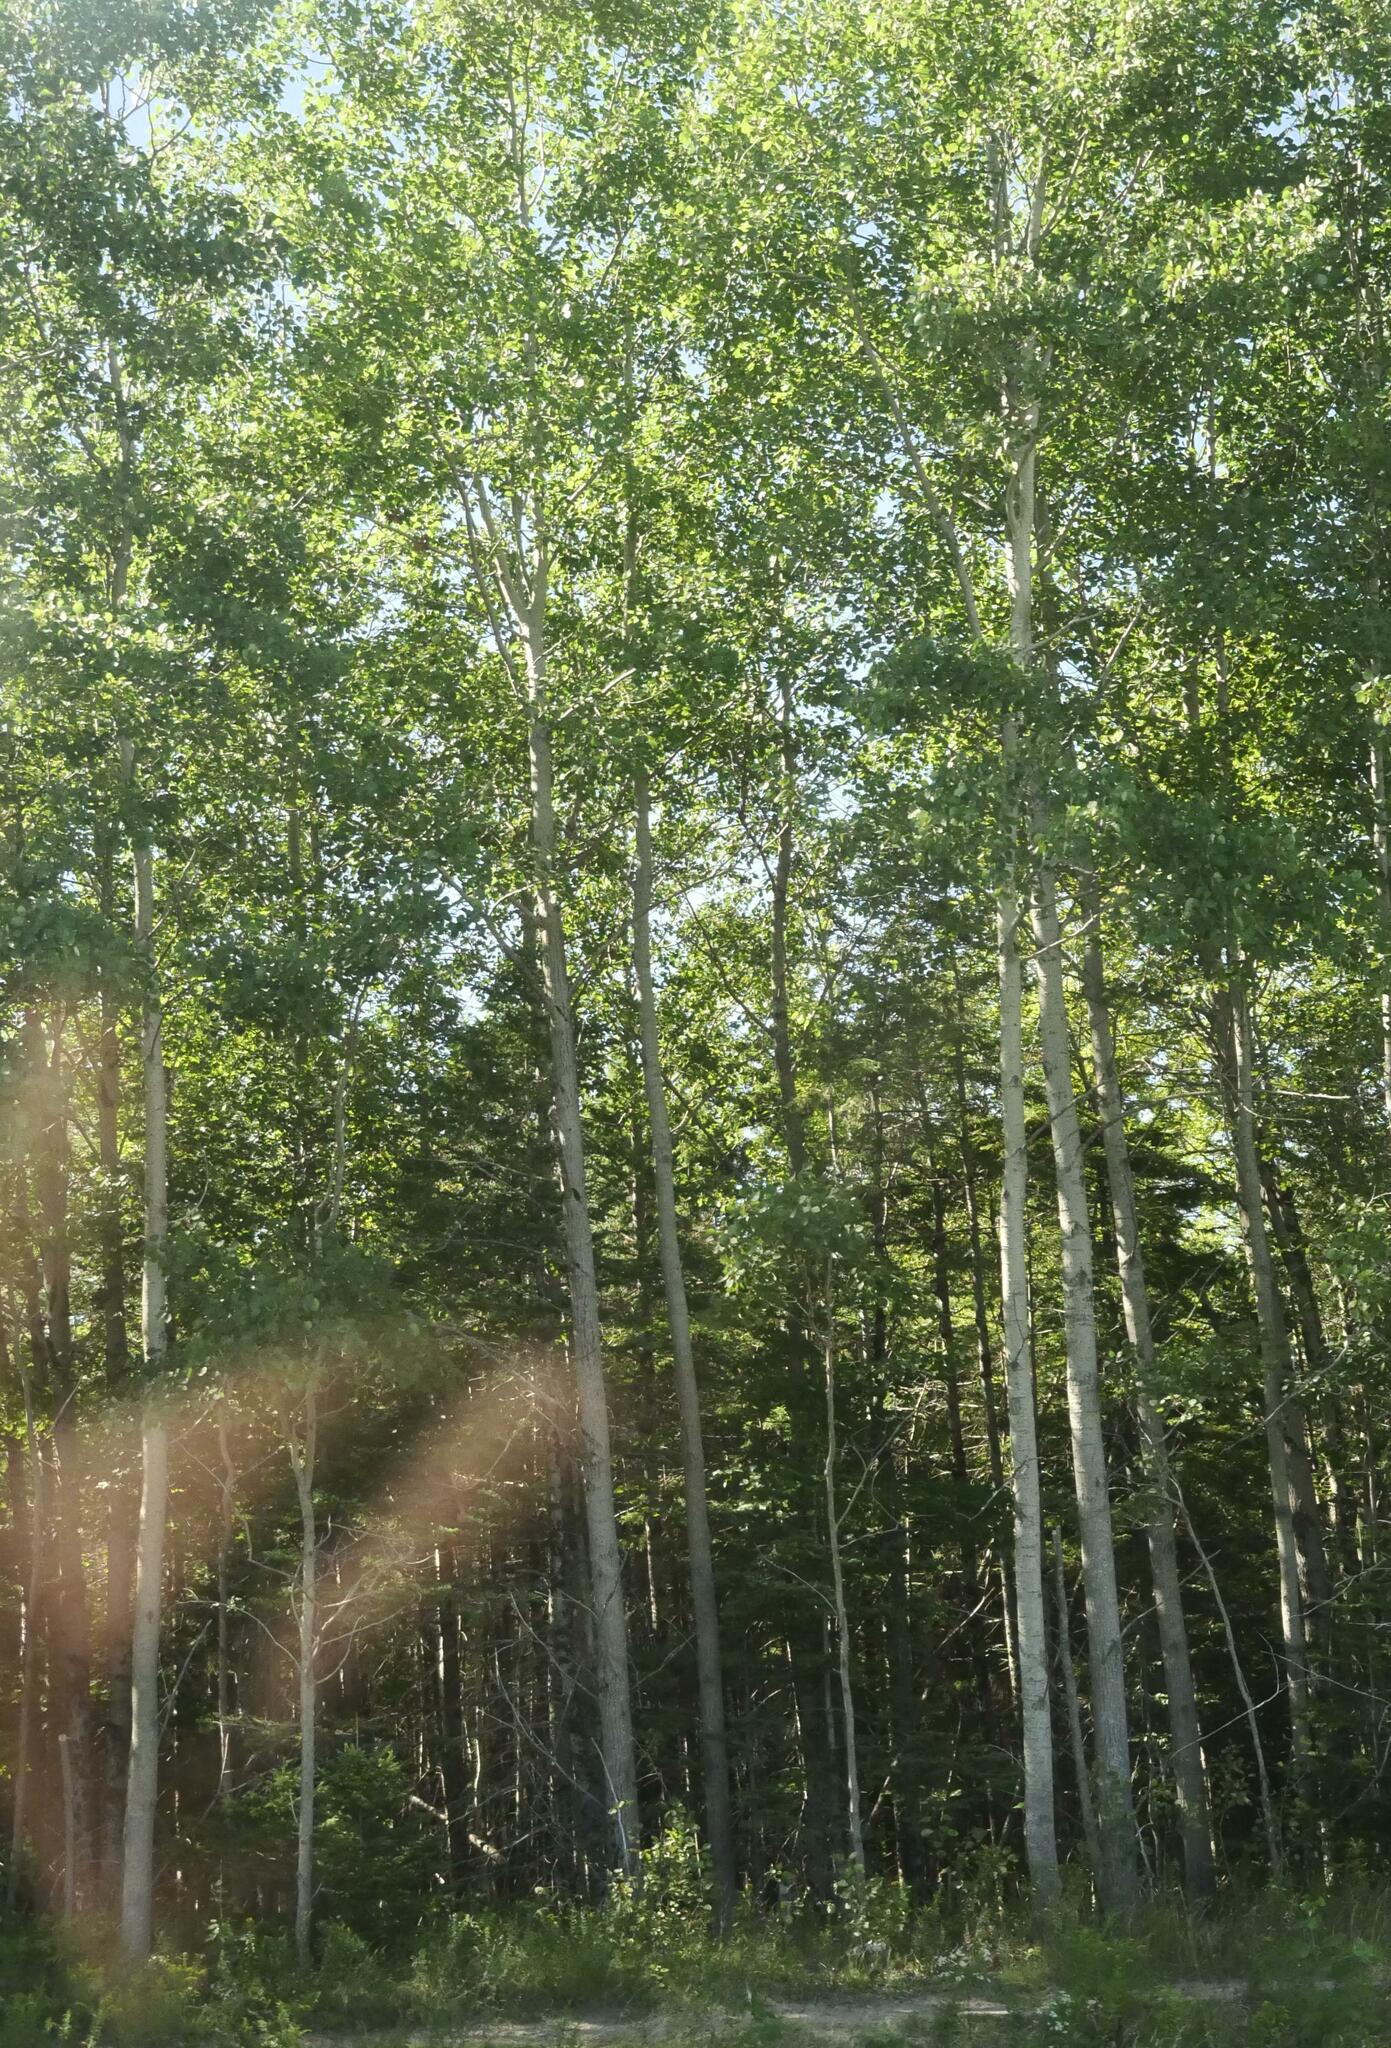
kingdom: Plantae
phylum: Tracheophyta
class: Magnoliopsida
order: Malpighiales
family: Salicaceae
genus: Populus
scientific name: Populus tremuloides
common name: Quaking aspen
